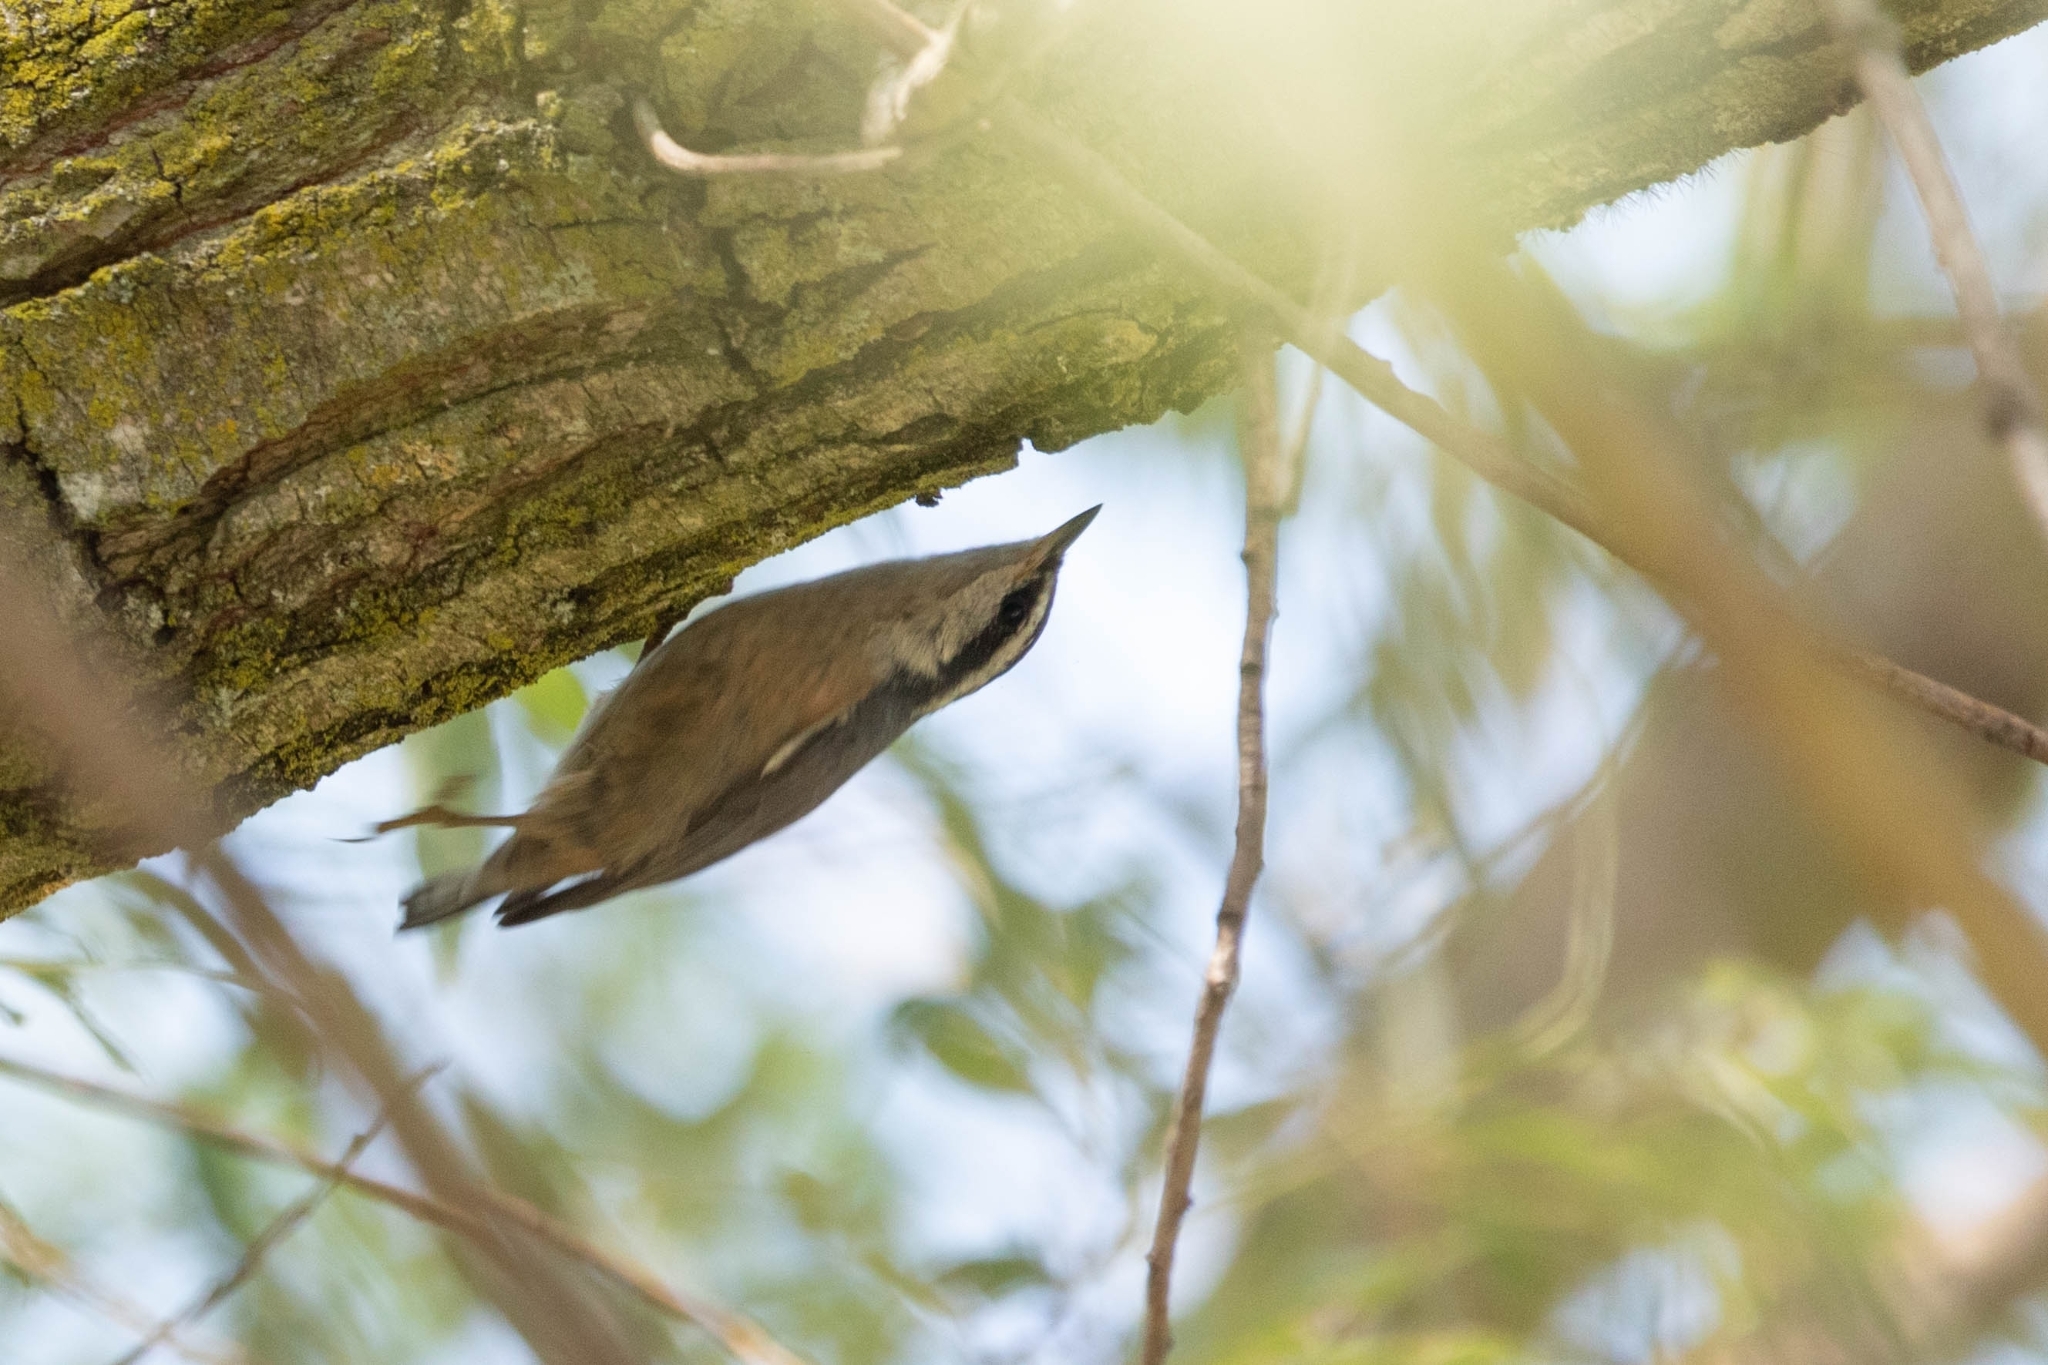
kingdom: Animalia
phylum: Chordata
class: Aves
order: Passeriformes
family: Sittidae
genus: Sitta
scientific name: Sitta canadensis
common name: Red-breasted nuthatch
